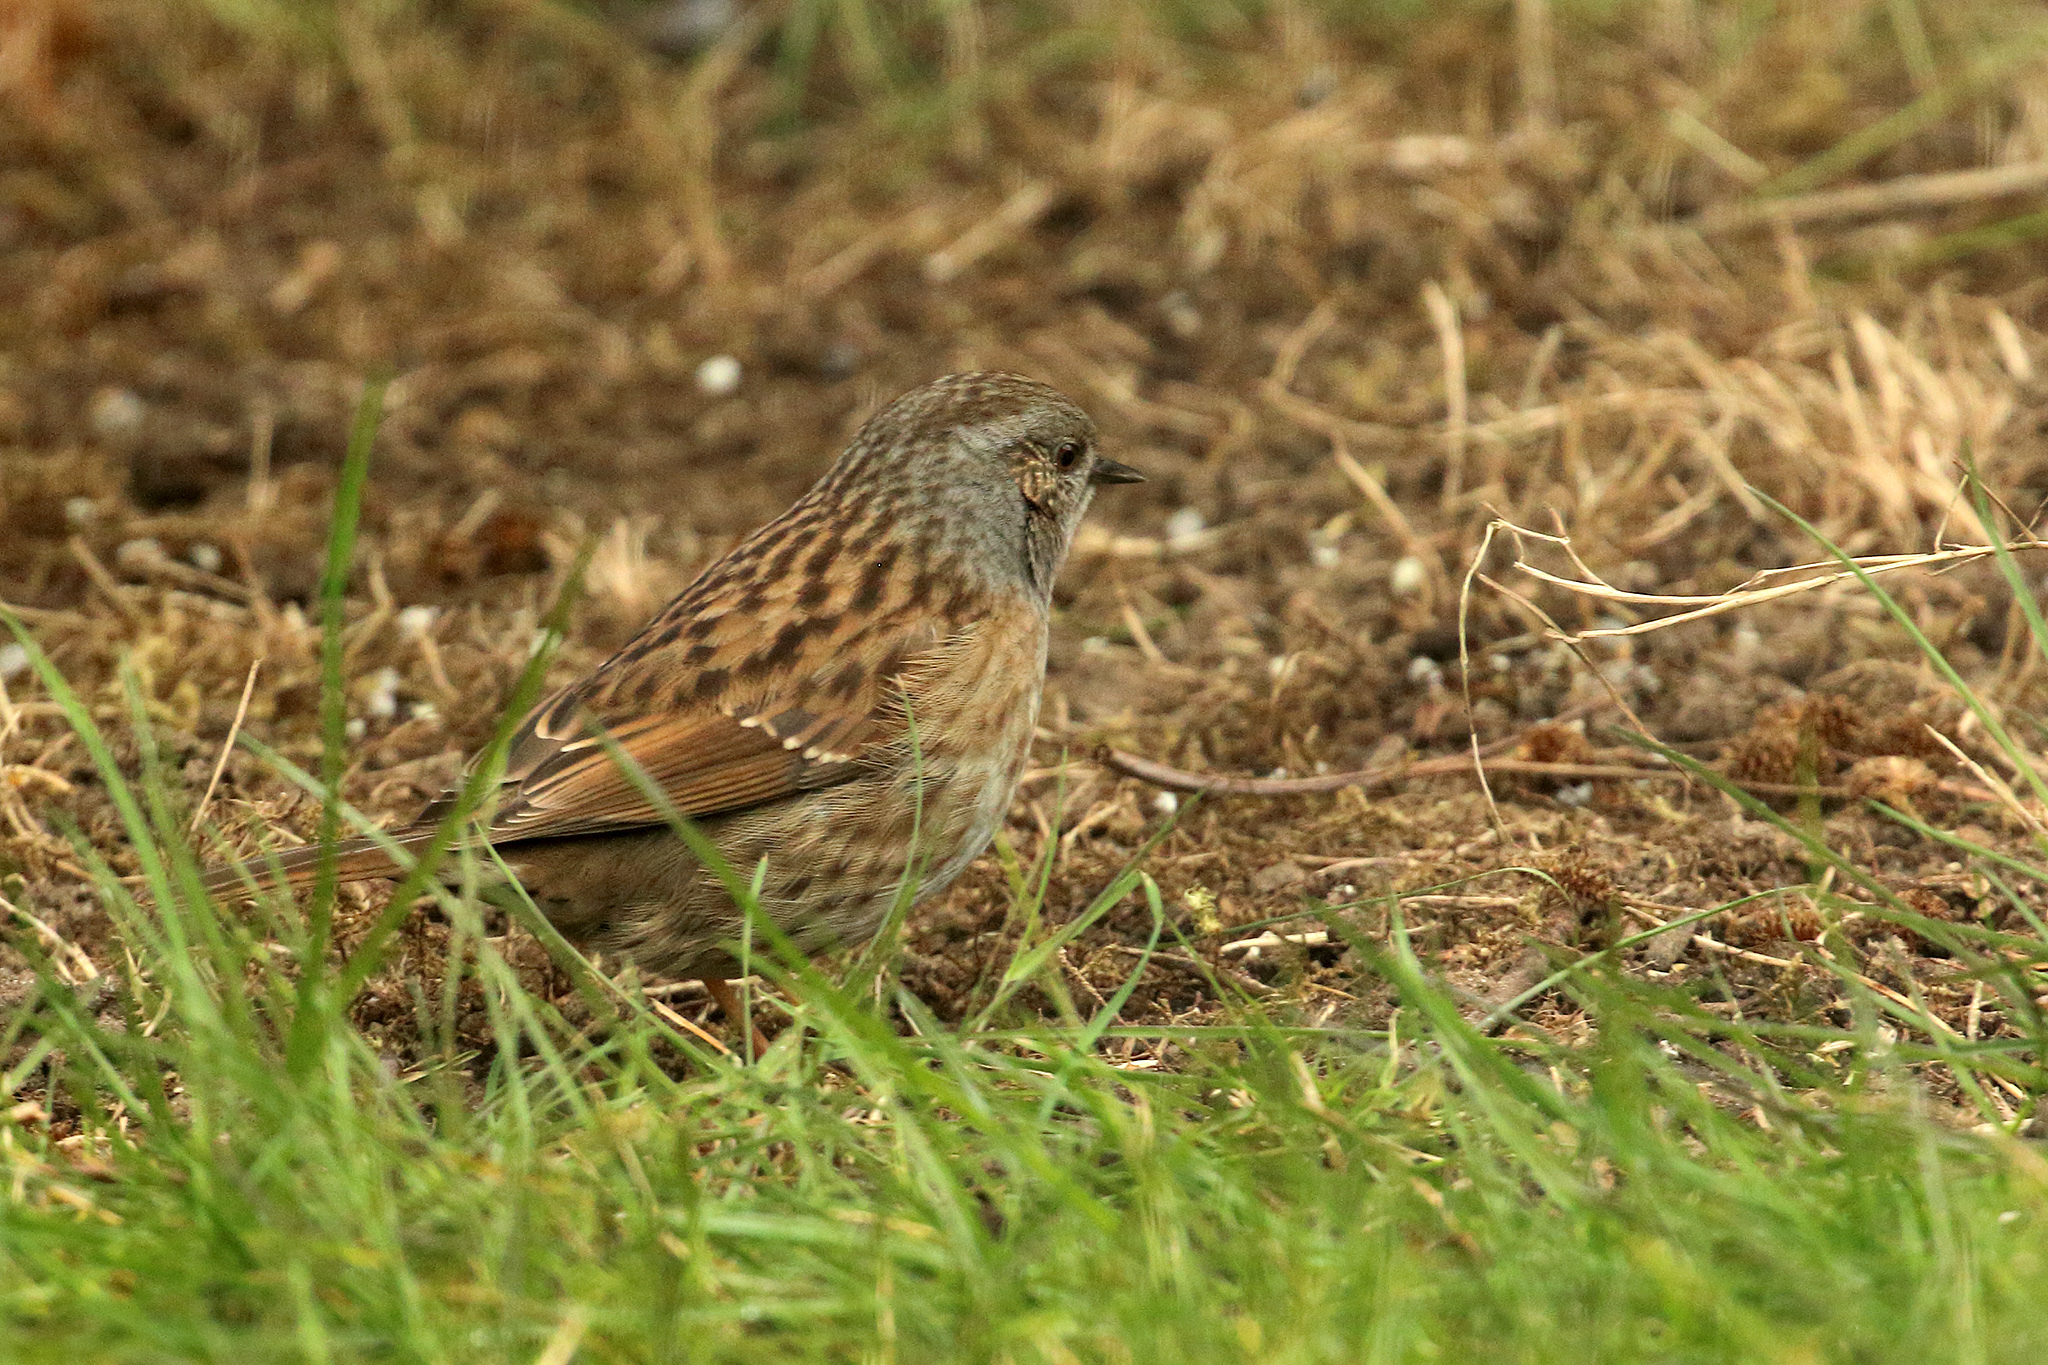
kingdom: Animalia
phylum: Chordata
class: Aves
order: Passeriformes
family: Prunellidae
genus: Prunella
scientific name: Prunella modularis
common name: Dunnock
